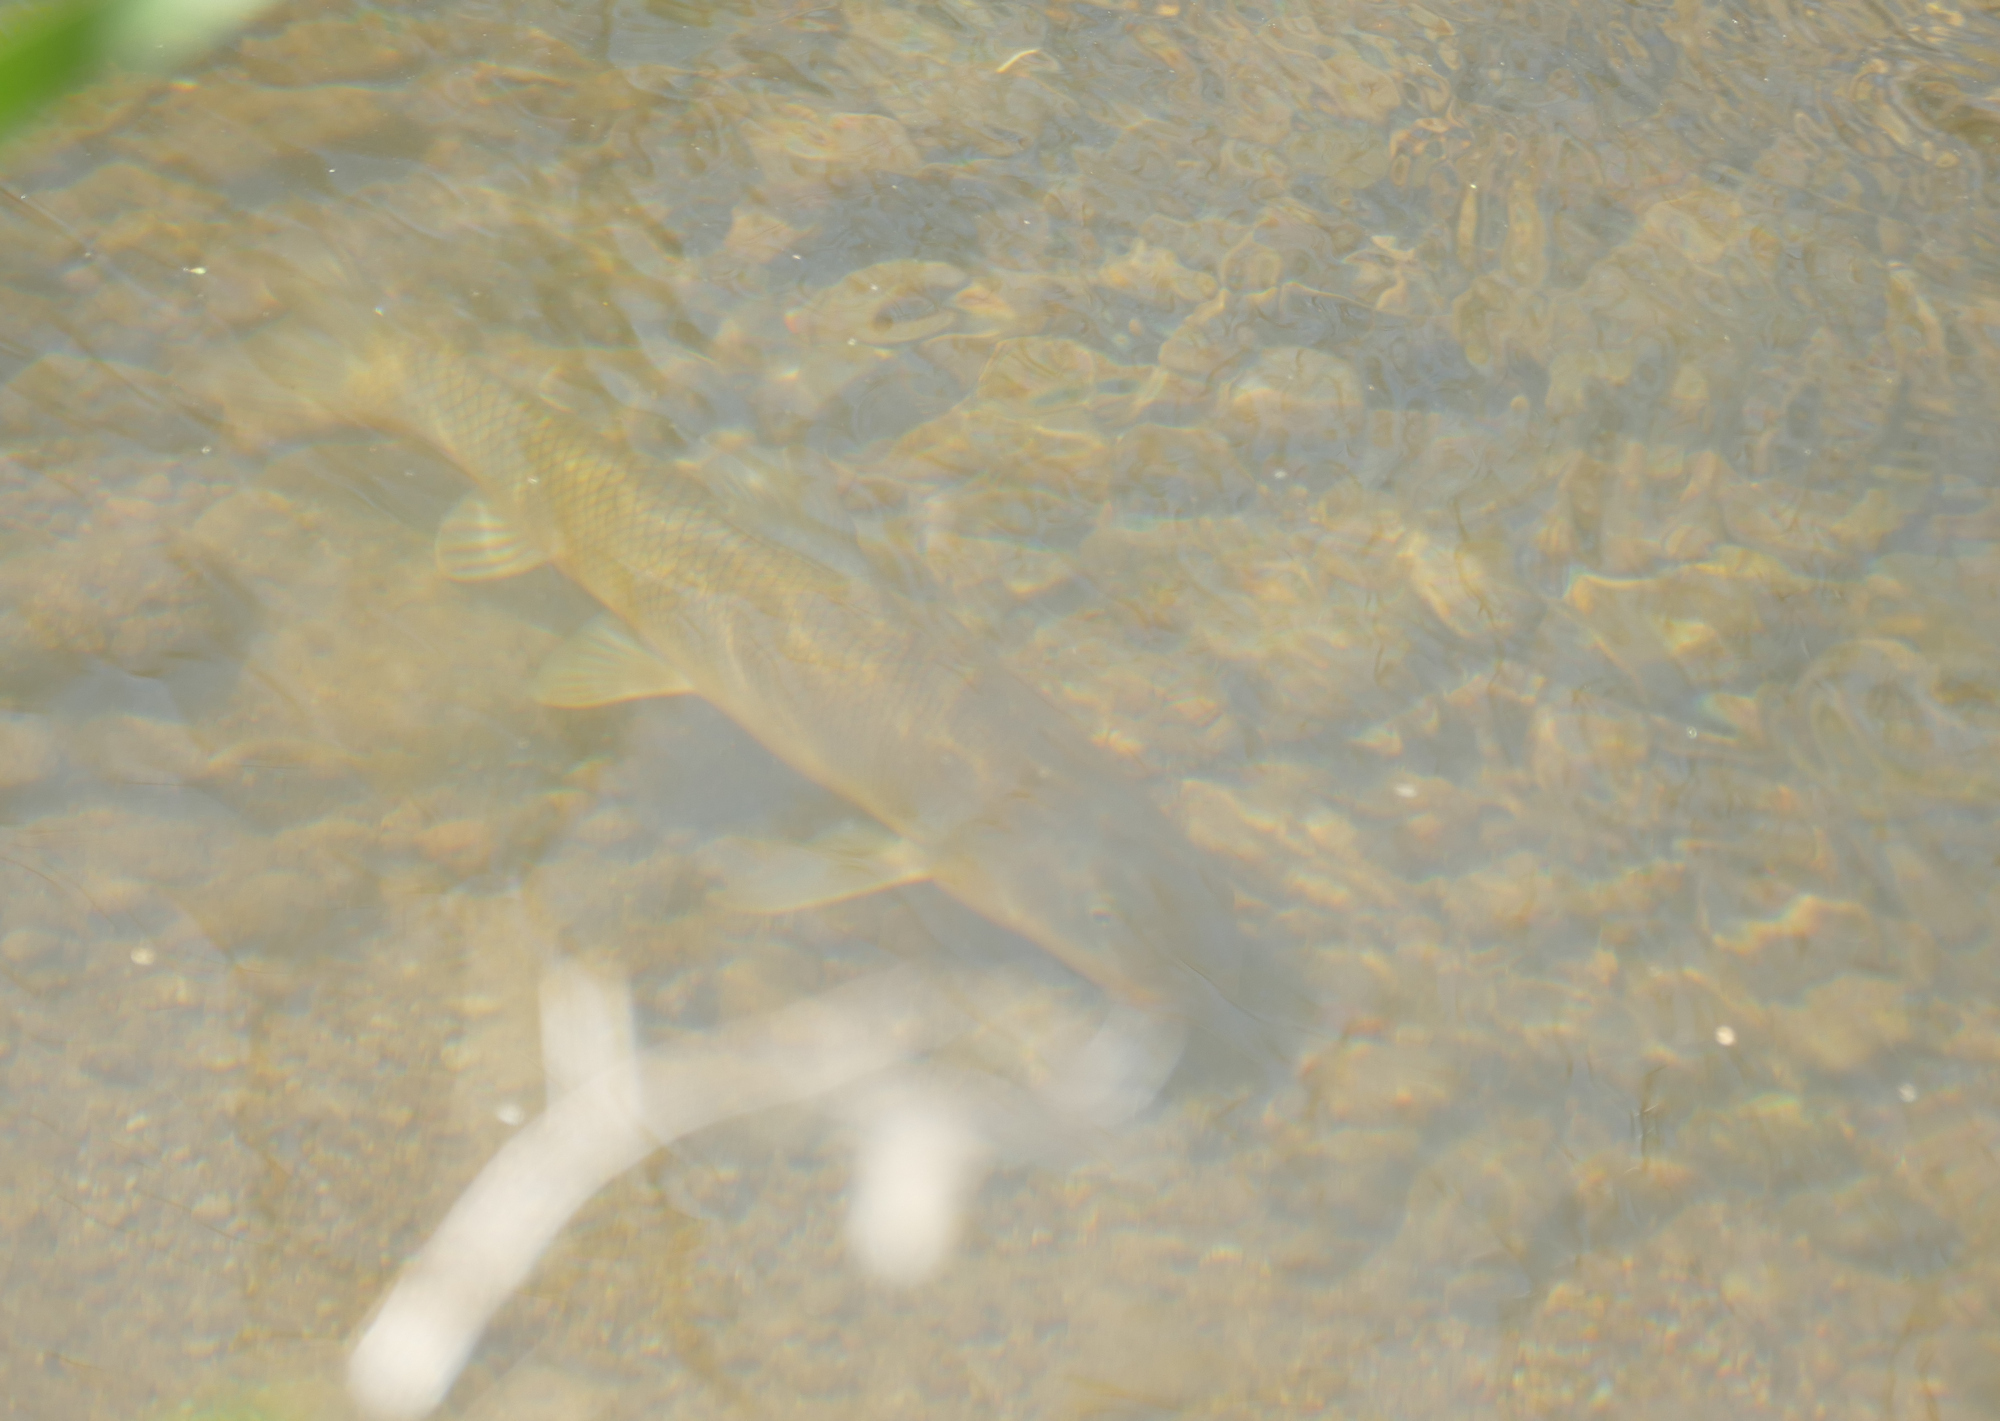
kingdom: Animalia
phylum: Chordata
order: Cypriniformes
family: Catostomidae
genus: Catostomus
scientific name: Catostomus insignis
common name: Sonora sucker
